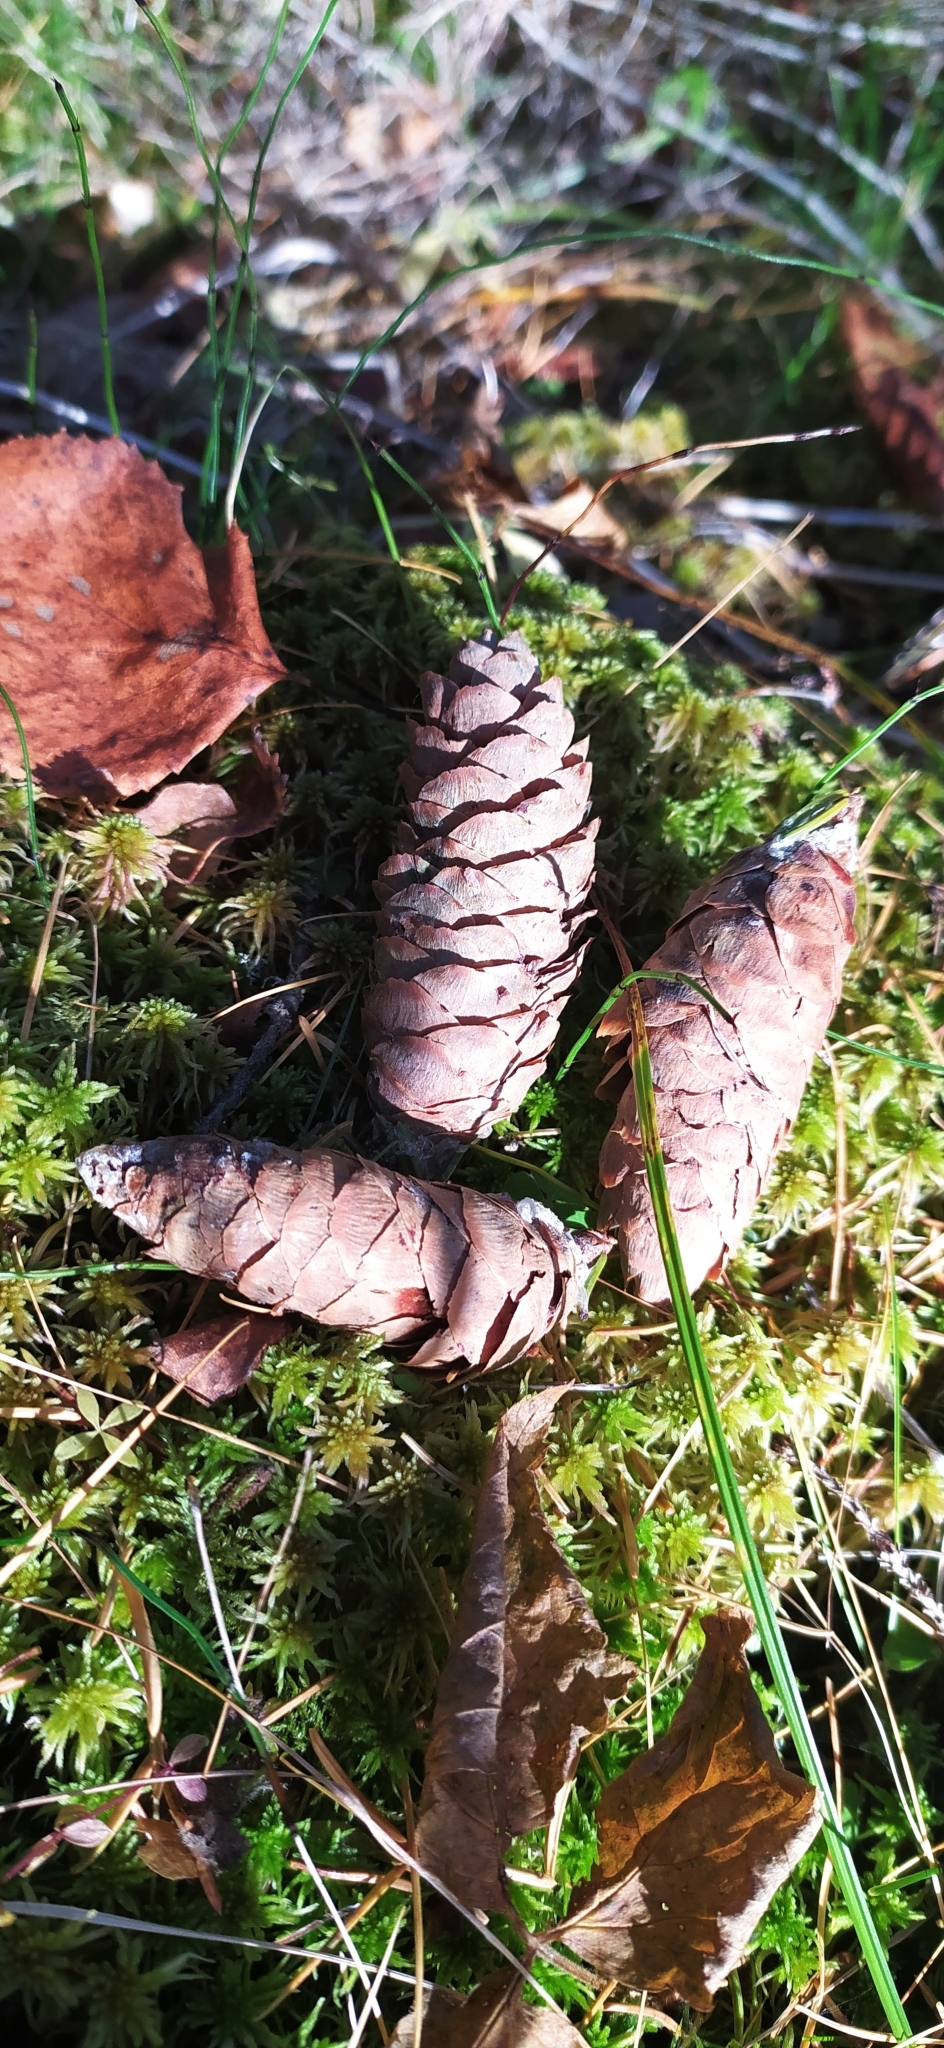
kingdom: Plantae
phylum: Tracheophyta
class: Pinopsida
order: Pinales
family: Pinaceae
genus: Picea
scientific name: Picea obovata
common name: Siberian spruce
